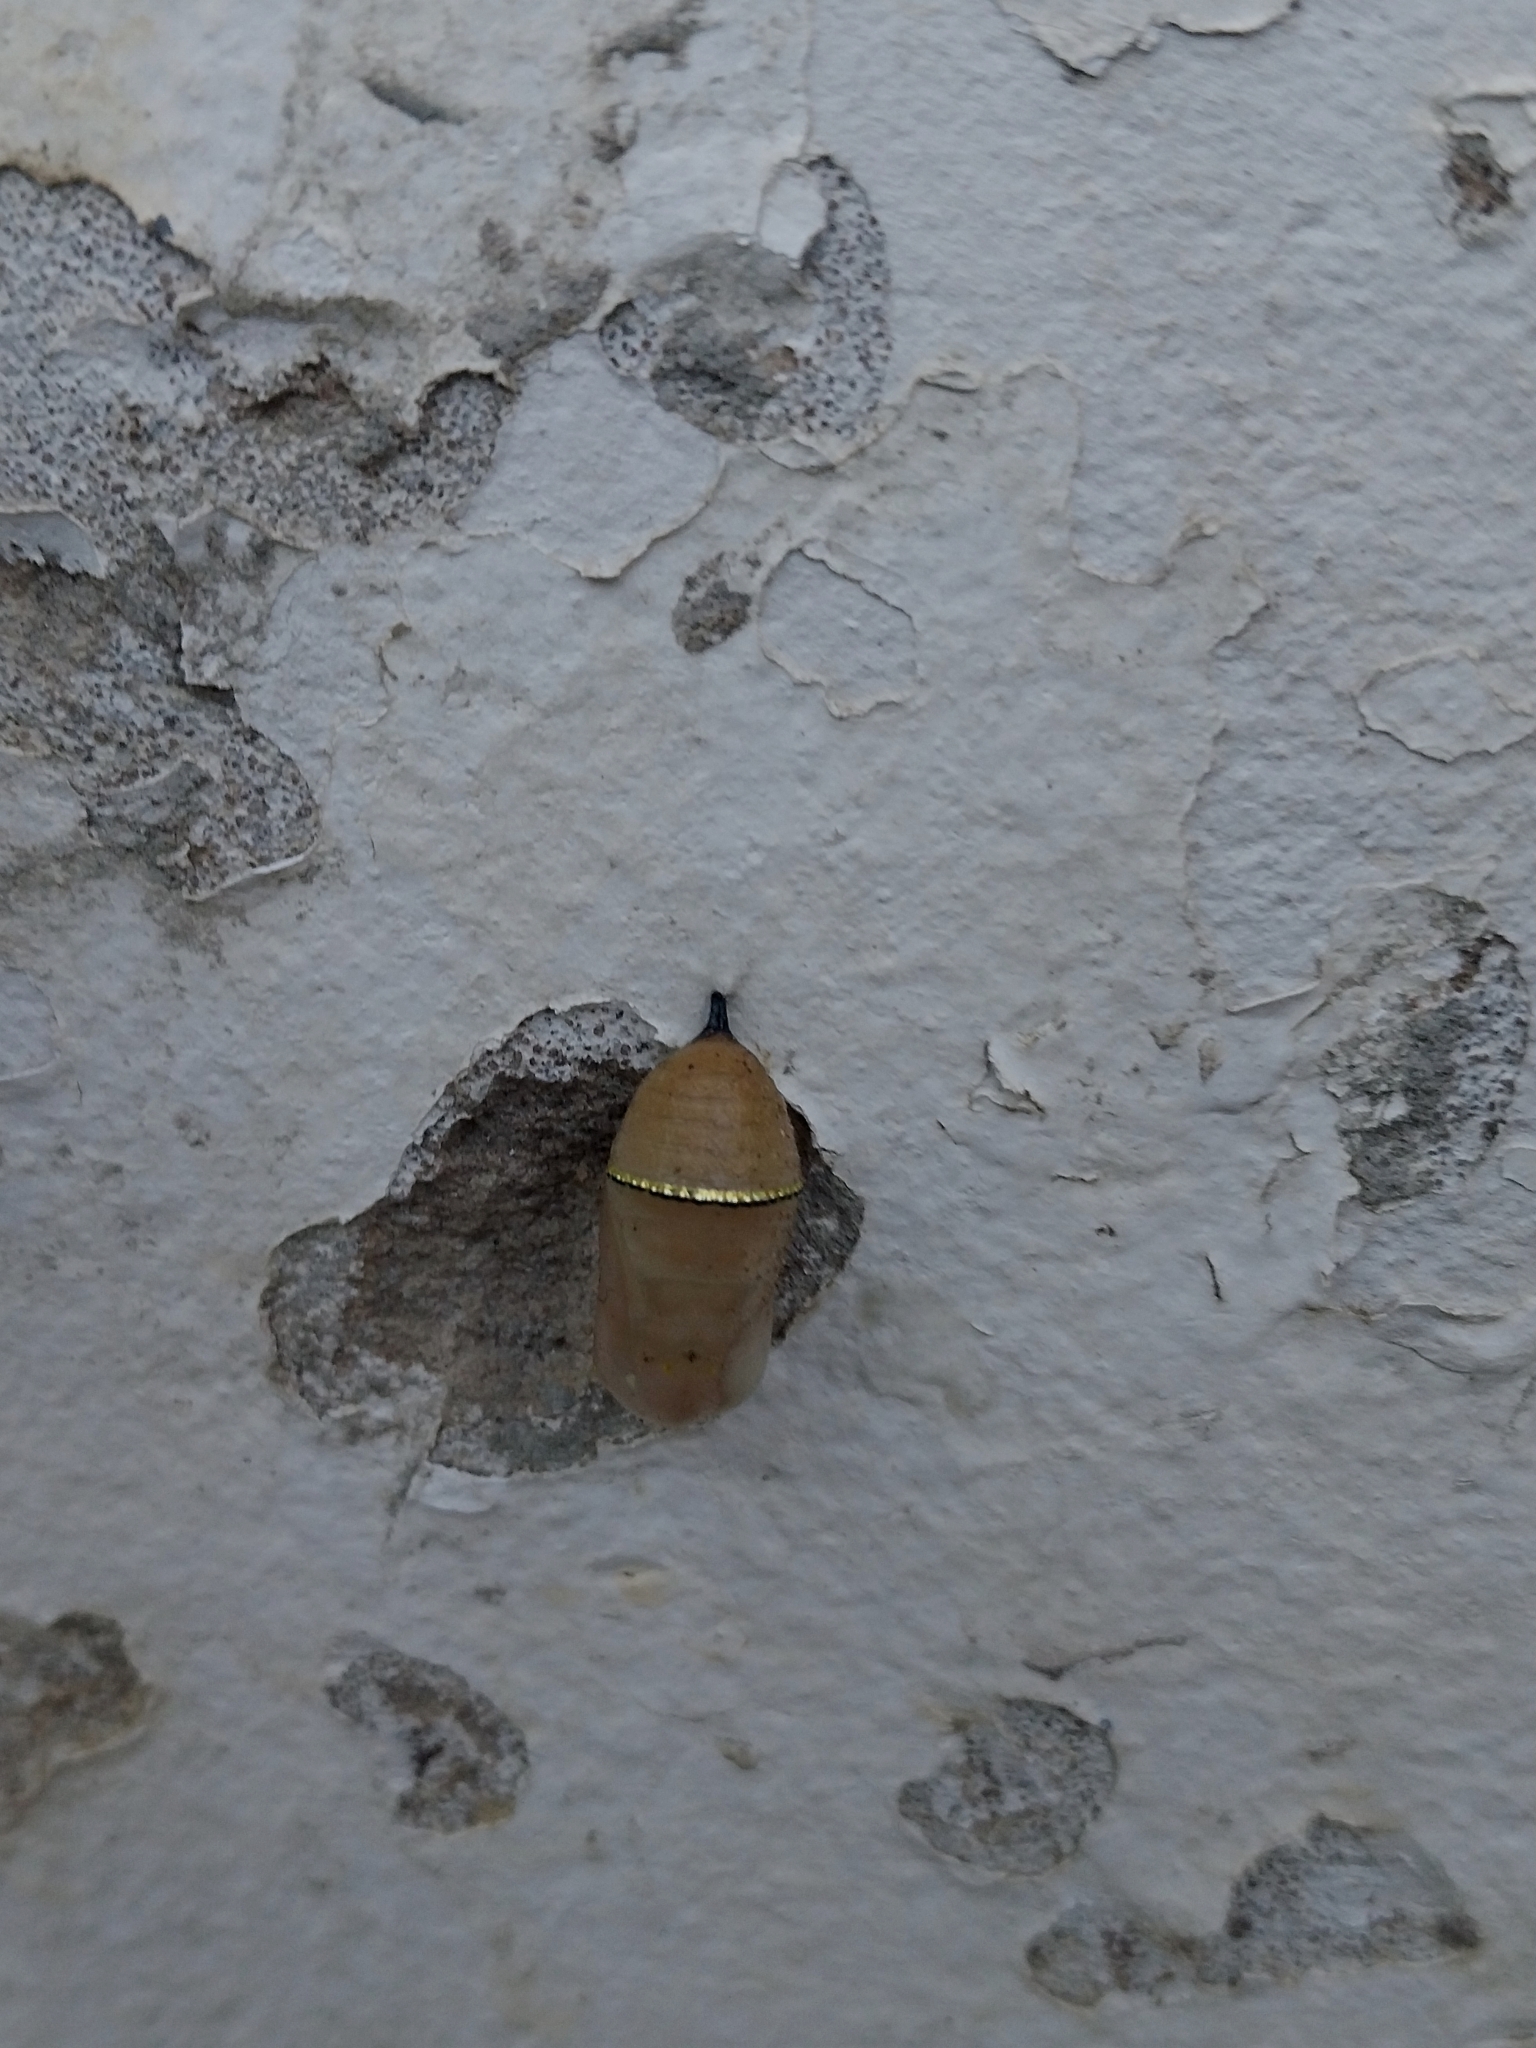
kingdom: Animalia
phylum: Arthropoda
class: Insecta
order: Lepidoptera
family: Nymphalidae
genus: Danaus
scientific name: Danaus chrysippus
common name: Plain tiger
